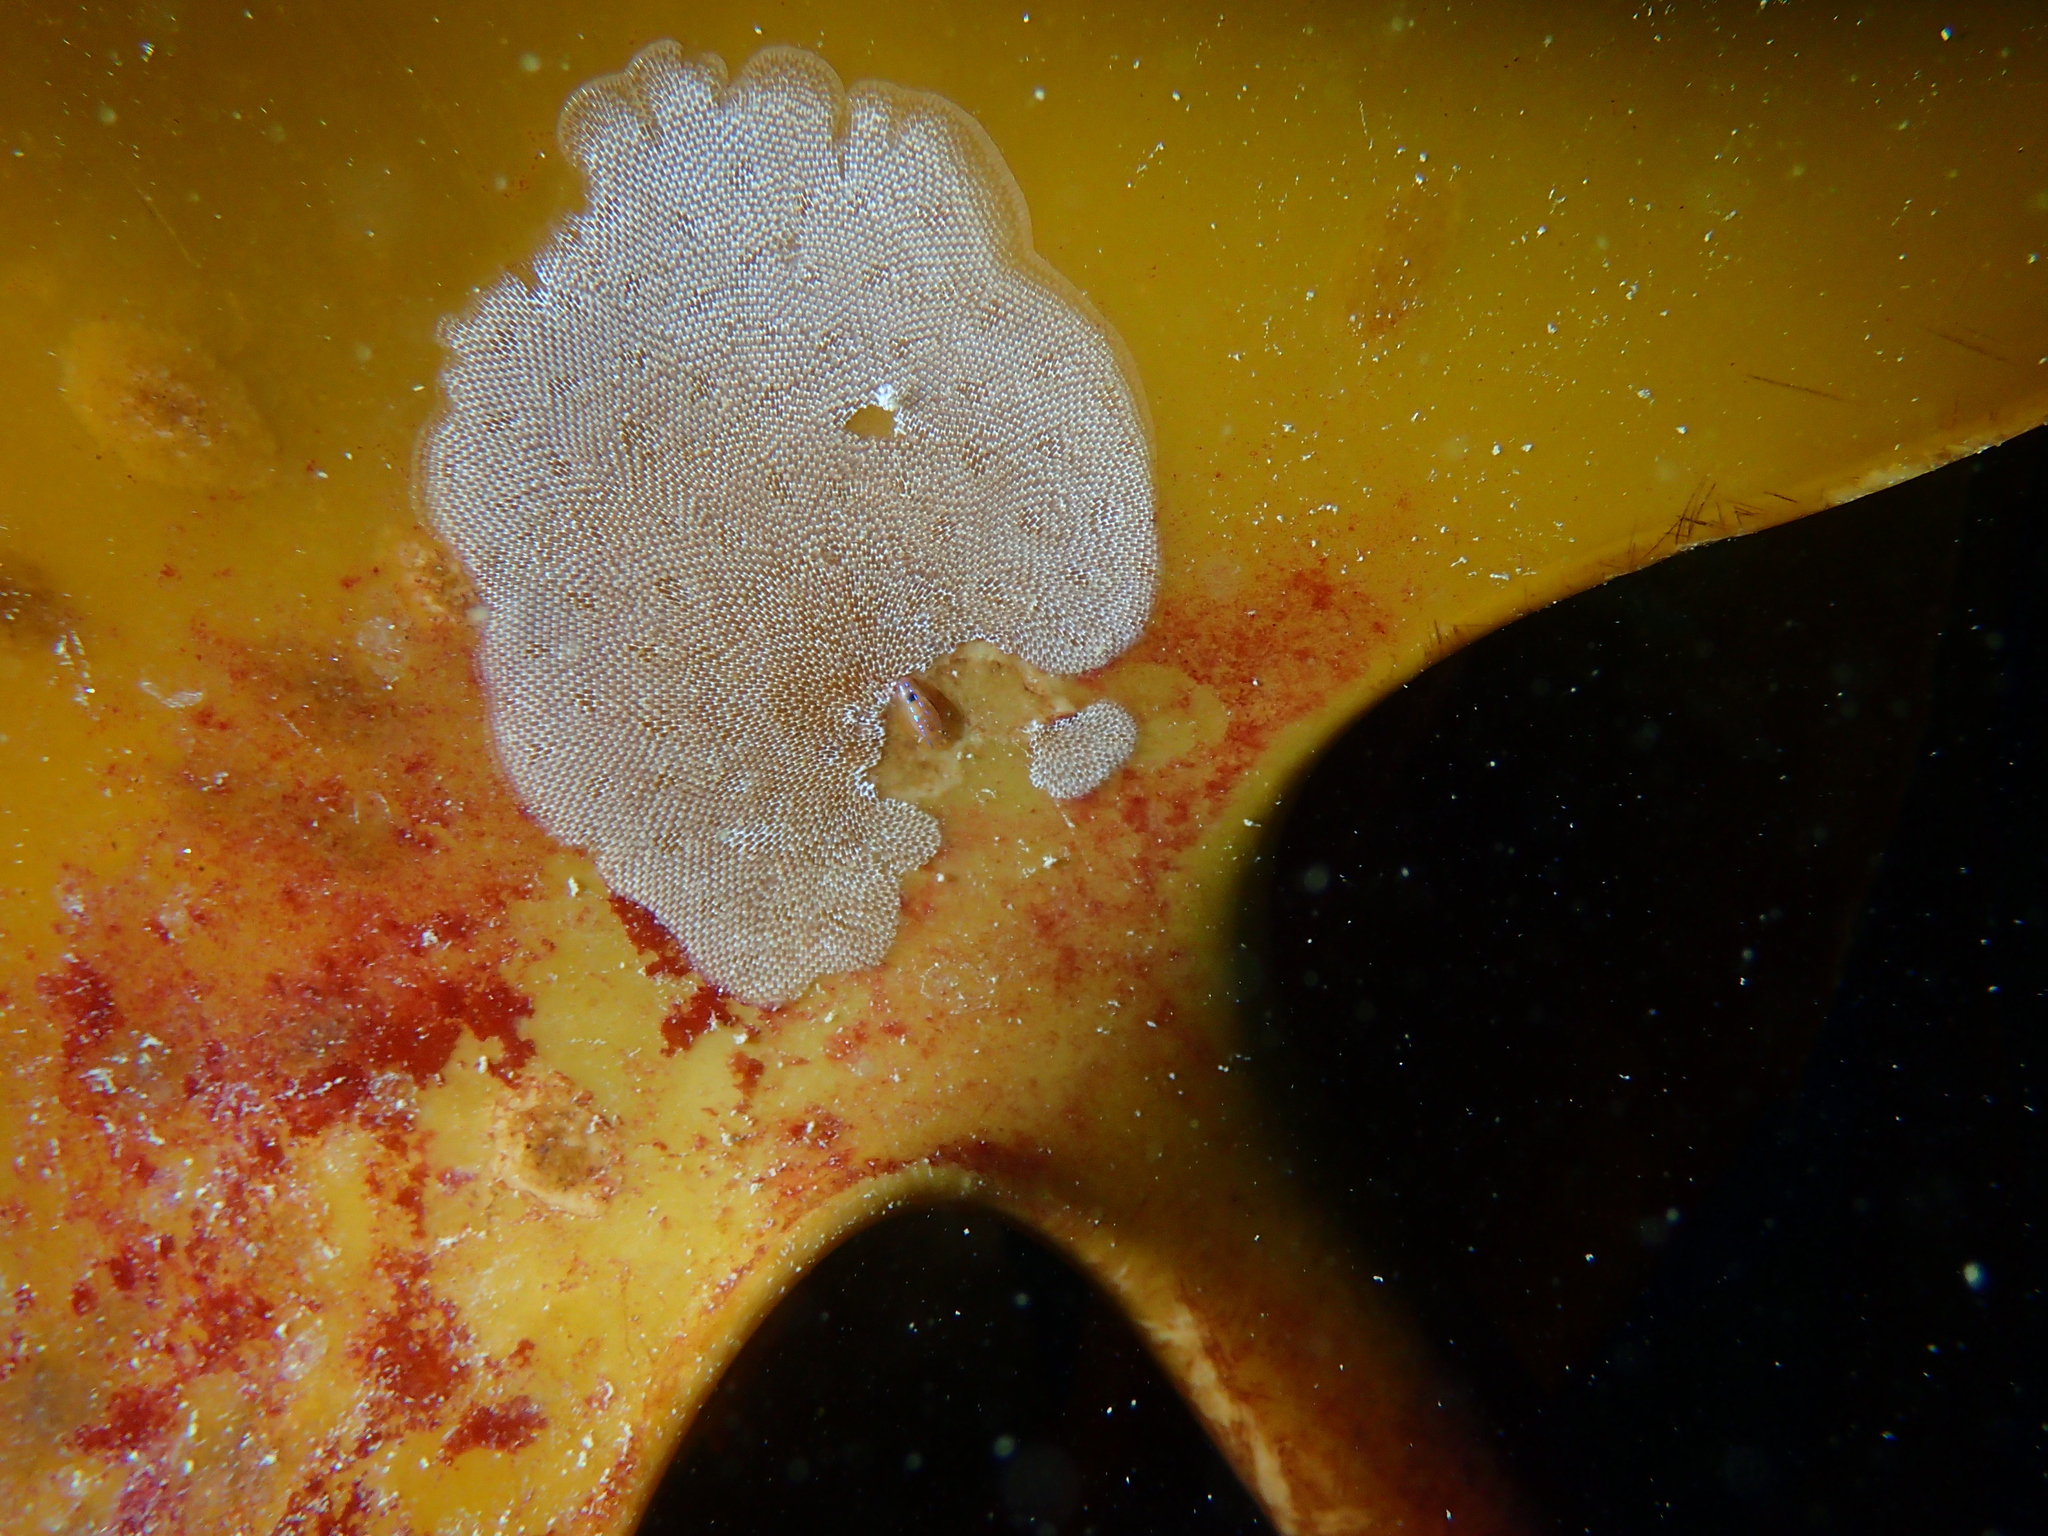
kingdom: Animalia
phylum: Bryozoa
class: Gymnolaemata
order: Cheilostomatida
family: Membraniporidae
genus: Membranipora
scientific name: Membranipora membranacea
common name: Sea mat
